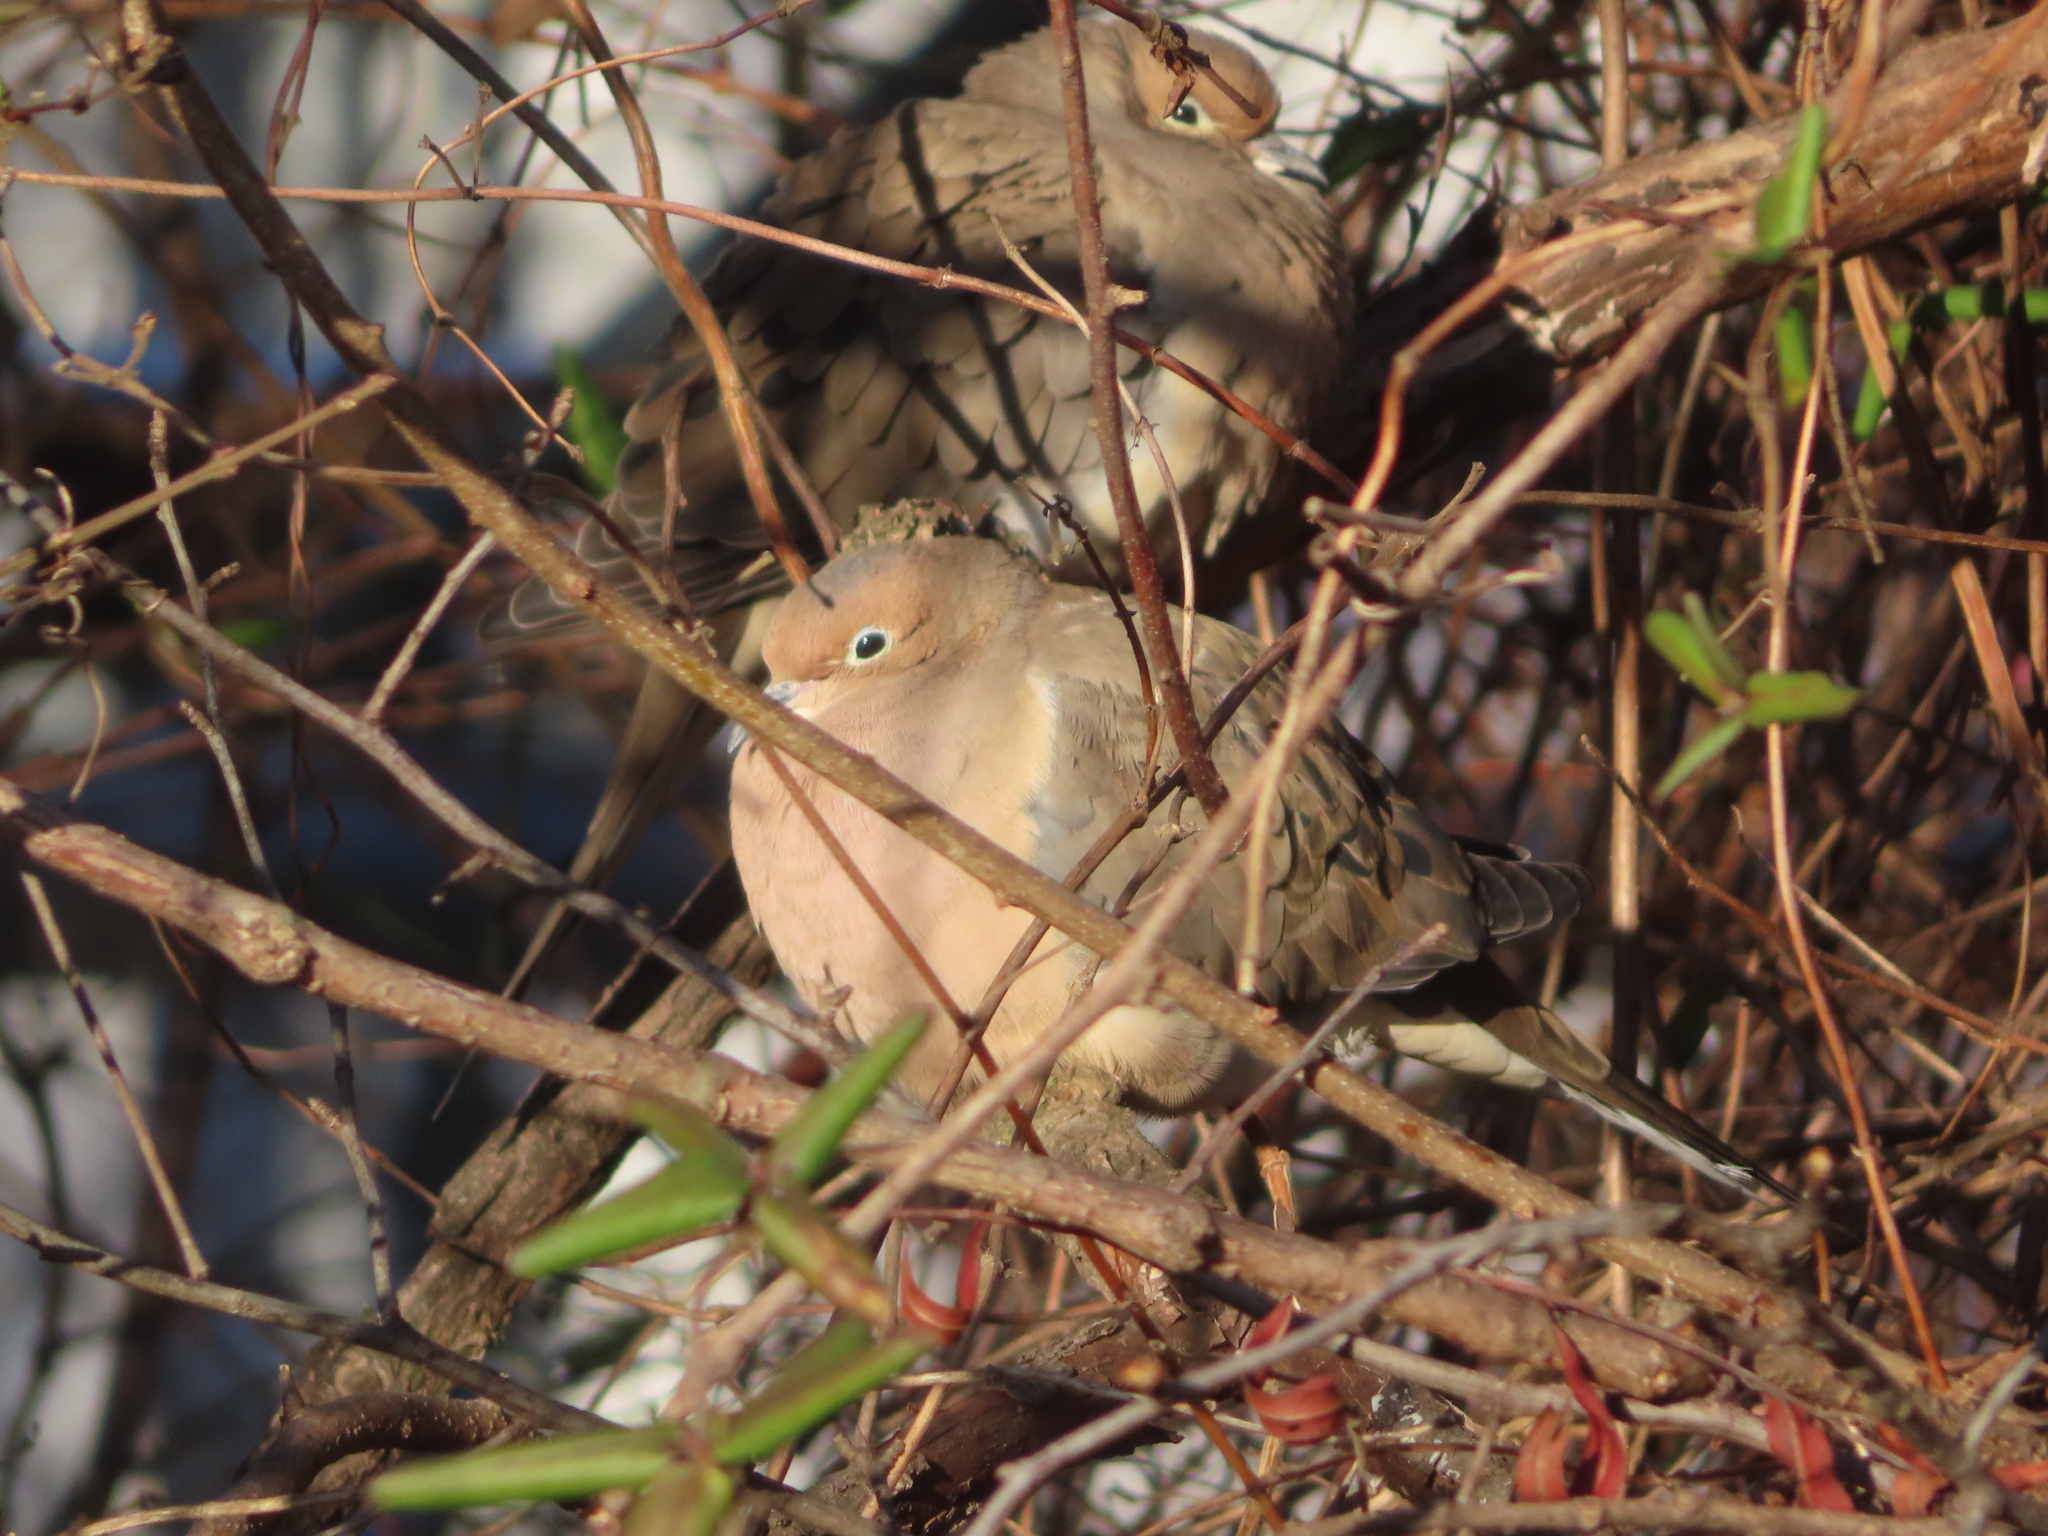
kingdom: Animalia
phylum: Chordata
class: Aves
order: Columbiformes
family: Columbidae
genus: Zenaida
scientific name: Zenaida macroura
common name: Mourning dove
